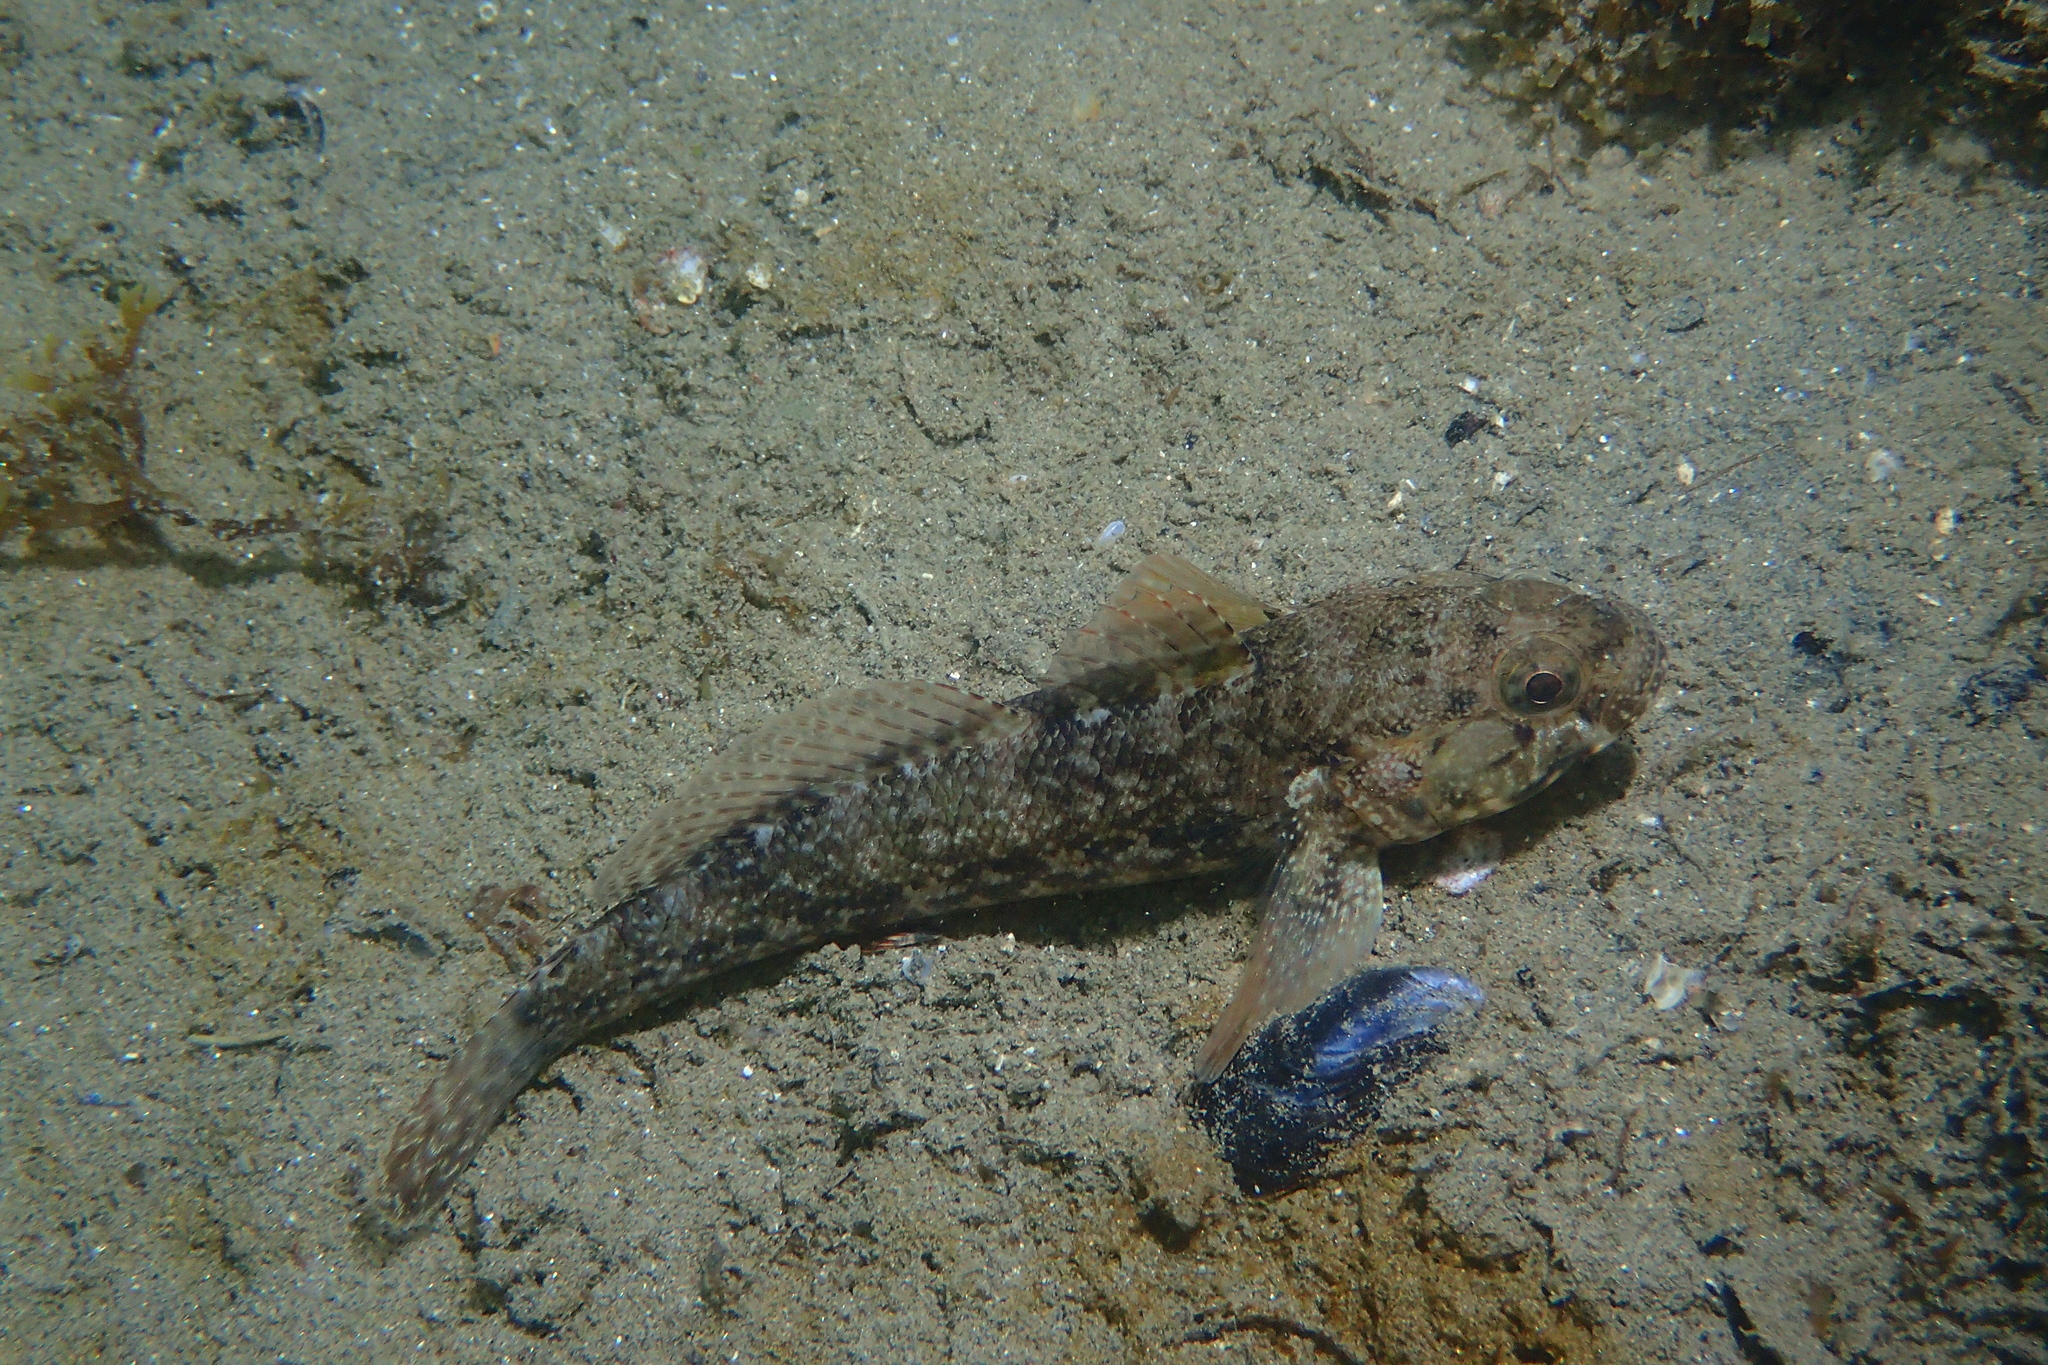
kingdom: Animalia
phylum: Chordata
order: Perciformes
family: Gobiidae
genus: Gobius
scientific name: Gobius paganellus
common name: Rock goby
